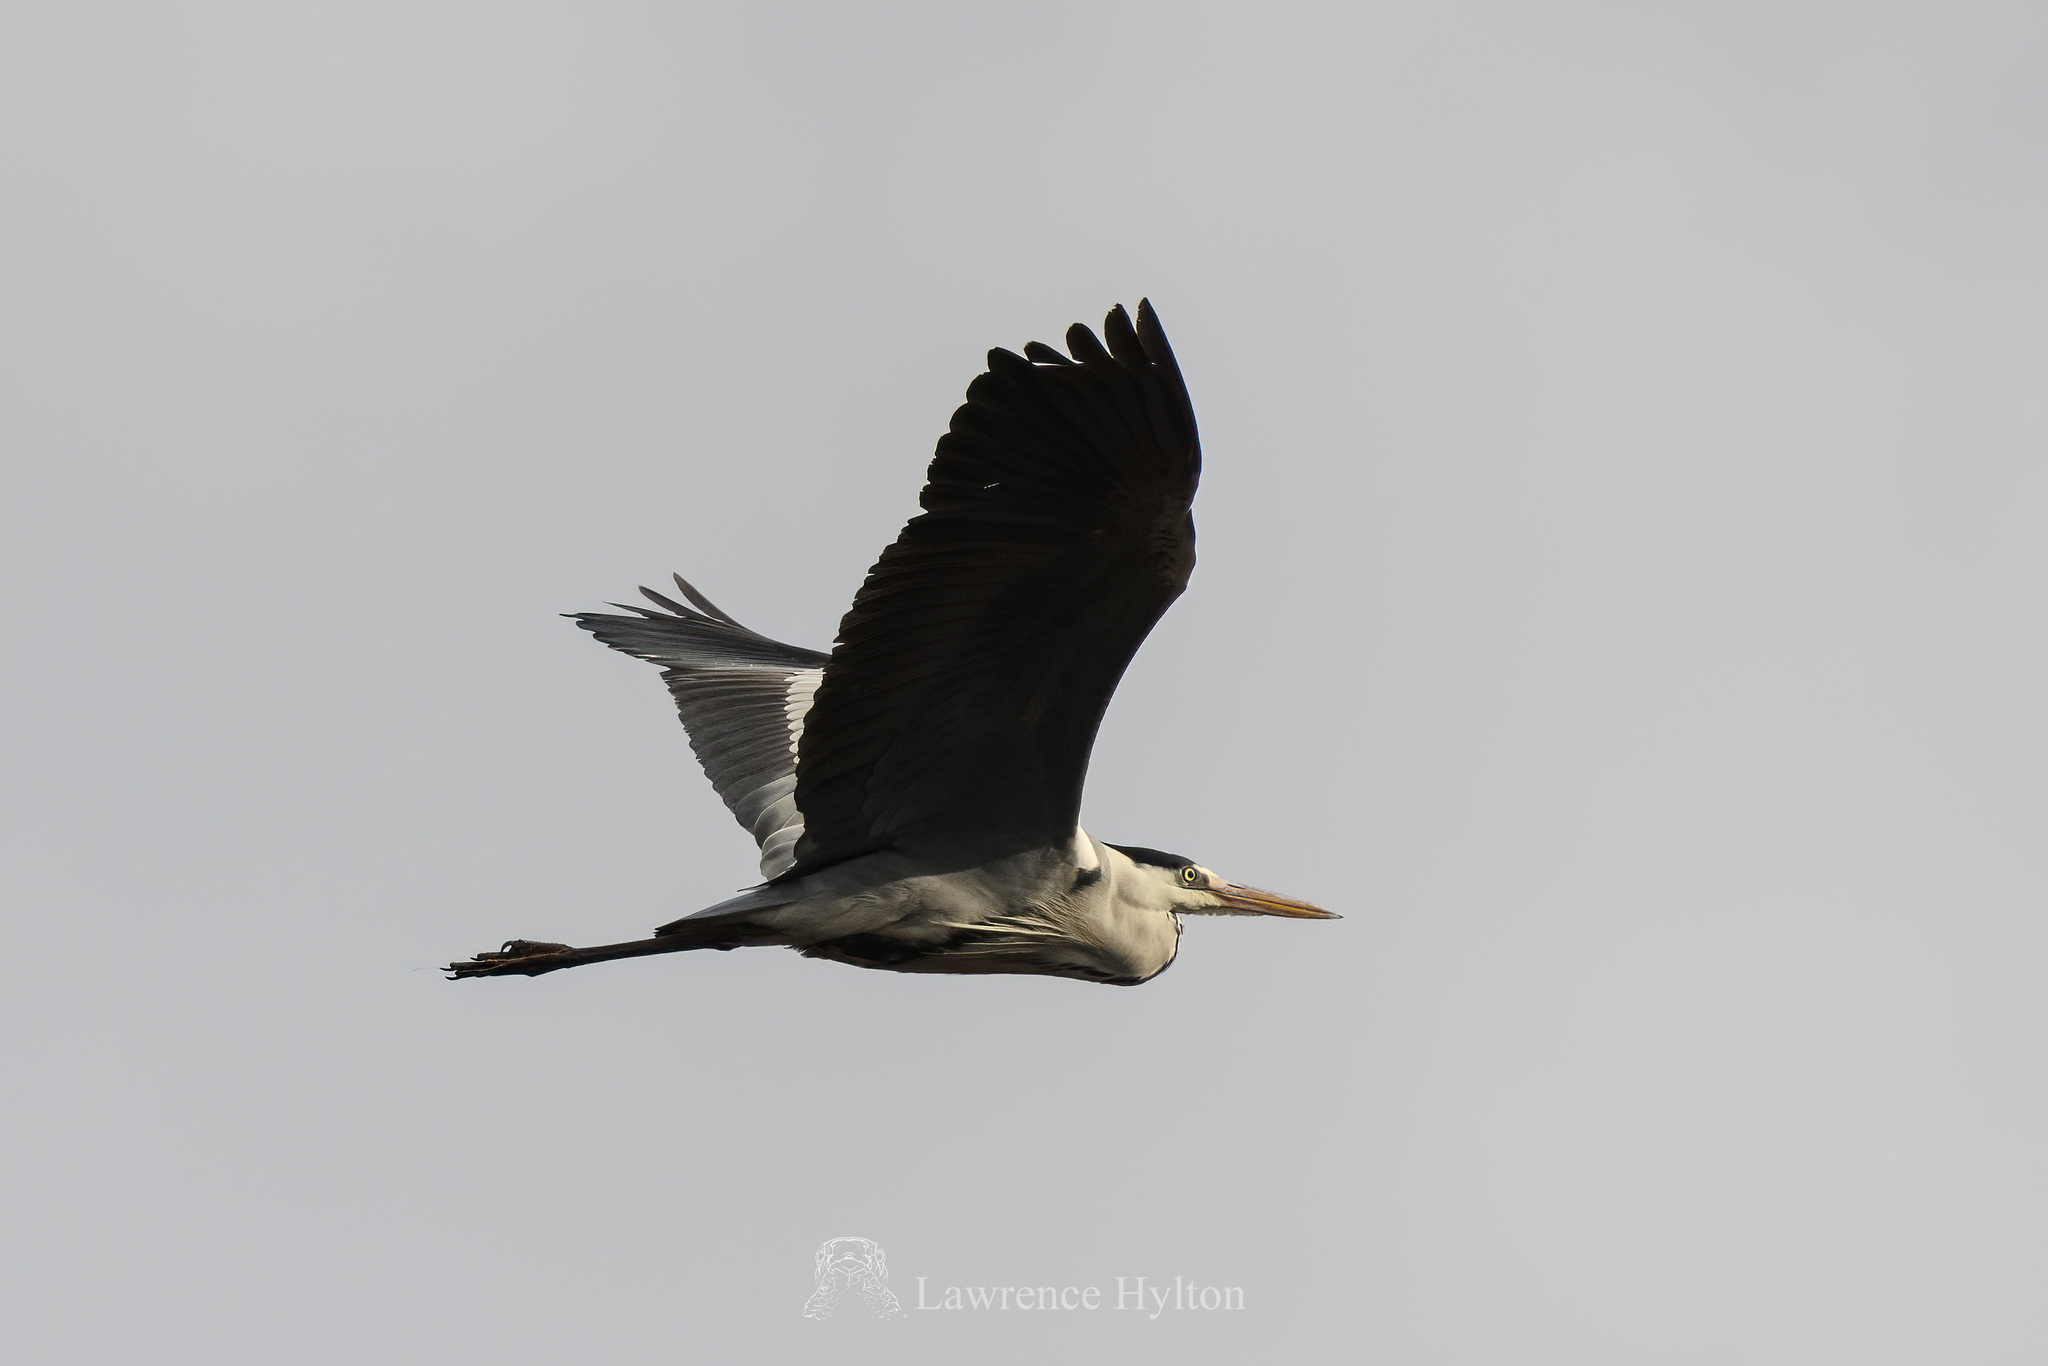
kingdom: Animalia
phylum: Chordata
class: Aves
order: Pelecaniformes
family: Ardeidae
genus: Ardea
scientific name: Ardea cinerea
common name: Grey heron
